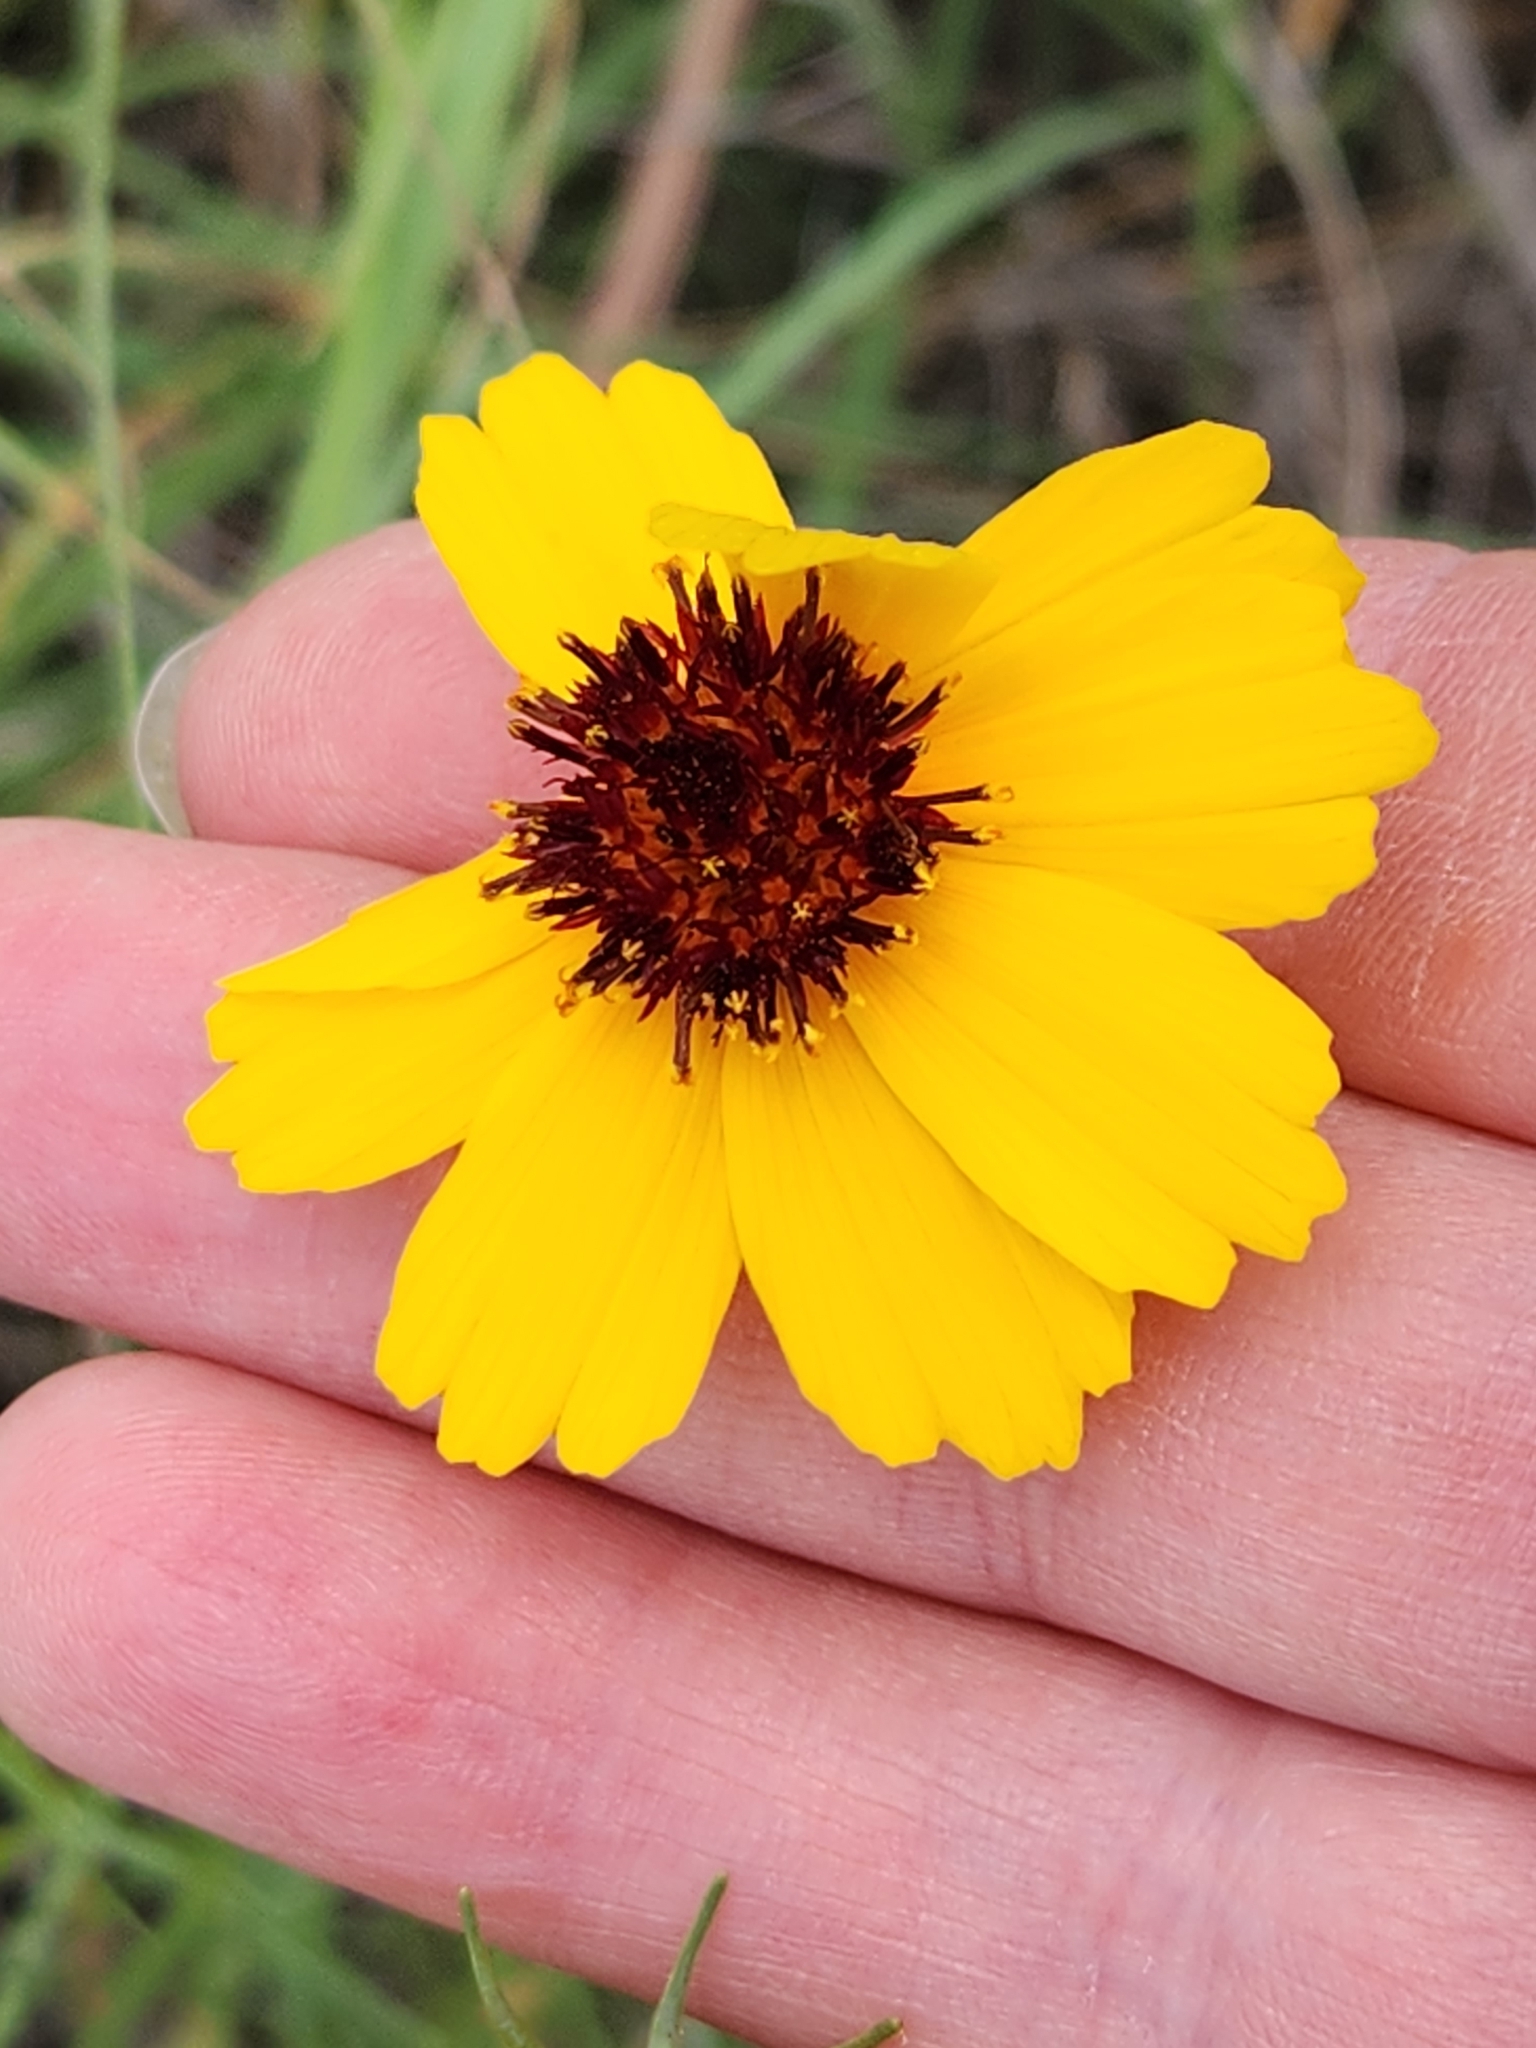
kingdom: Plantae
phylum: Tracheophyta
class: Magnoliopsida
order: Asterales
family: Asteraceae
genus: Thelesperma
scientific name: Thelesperma filifolium
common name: Stiff greenthread
